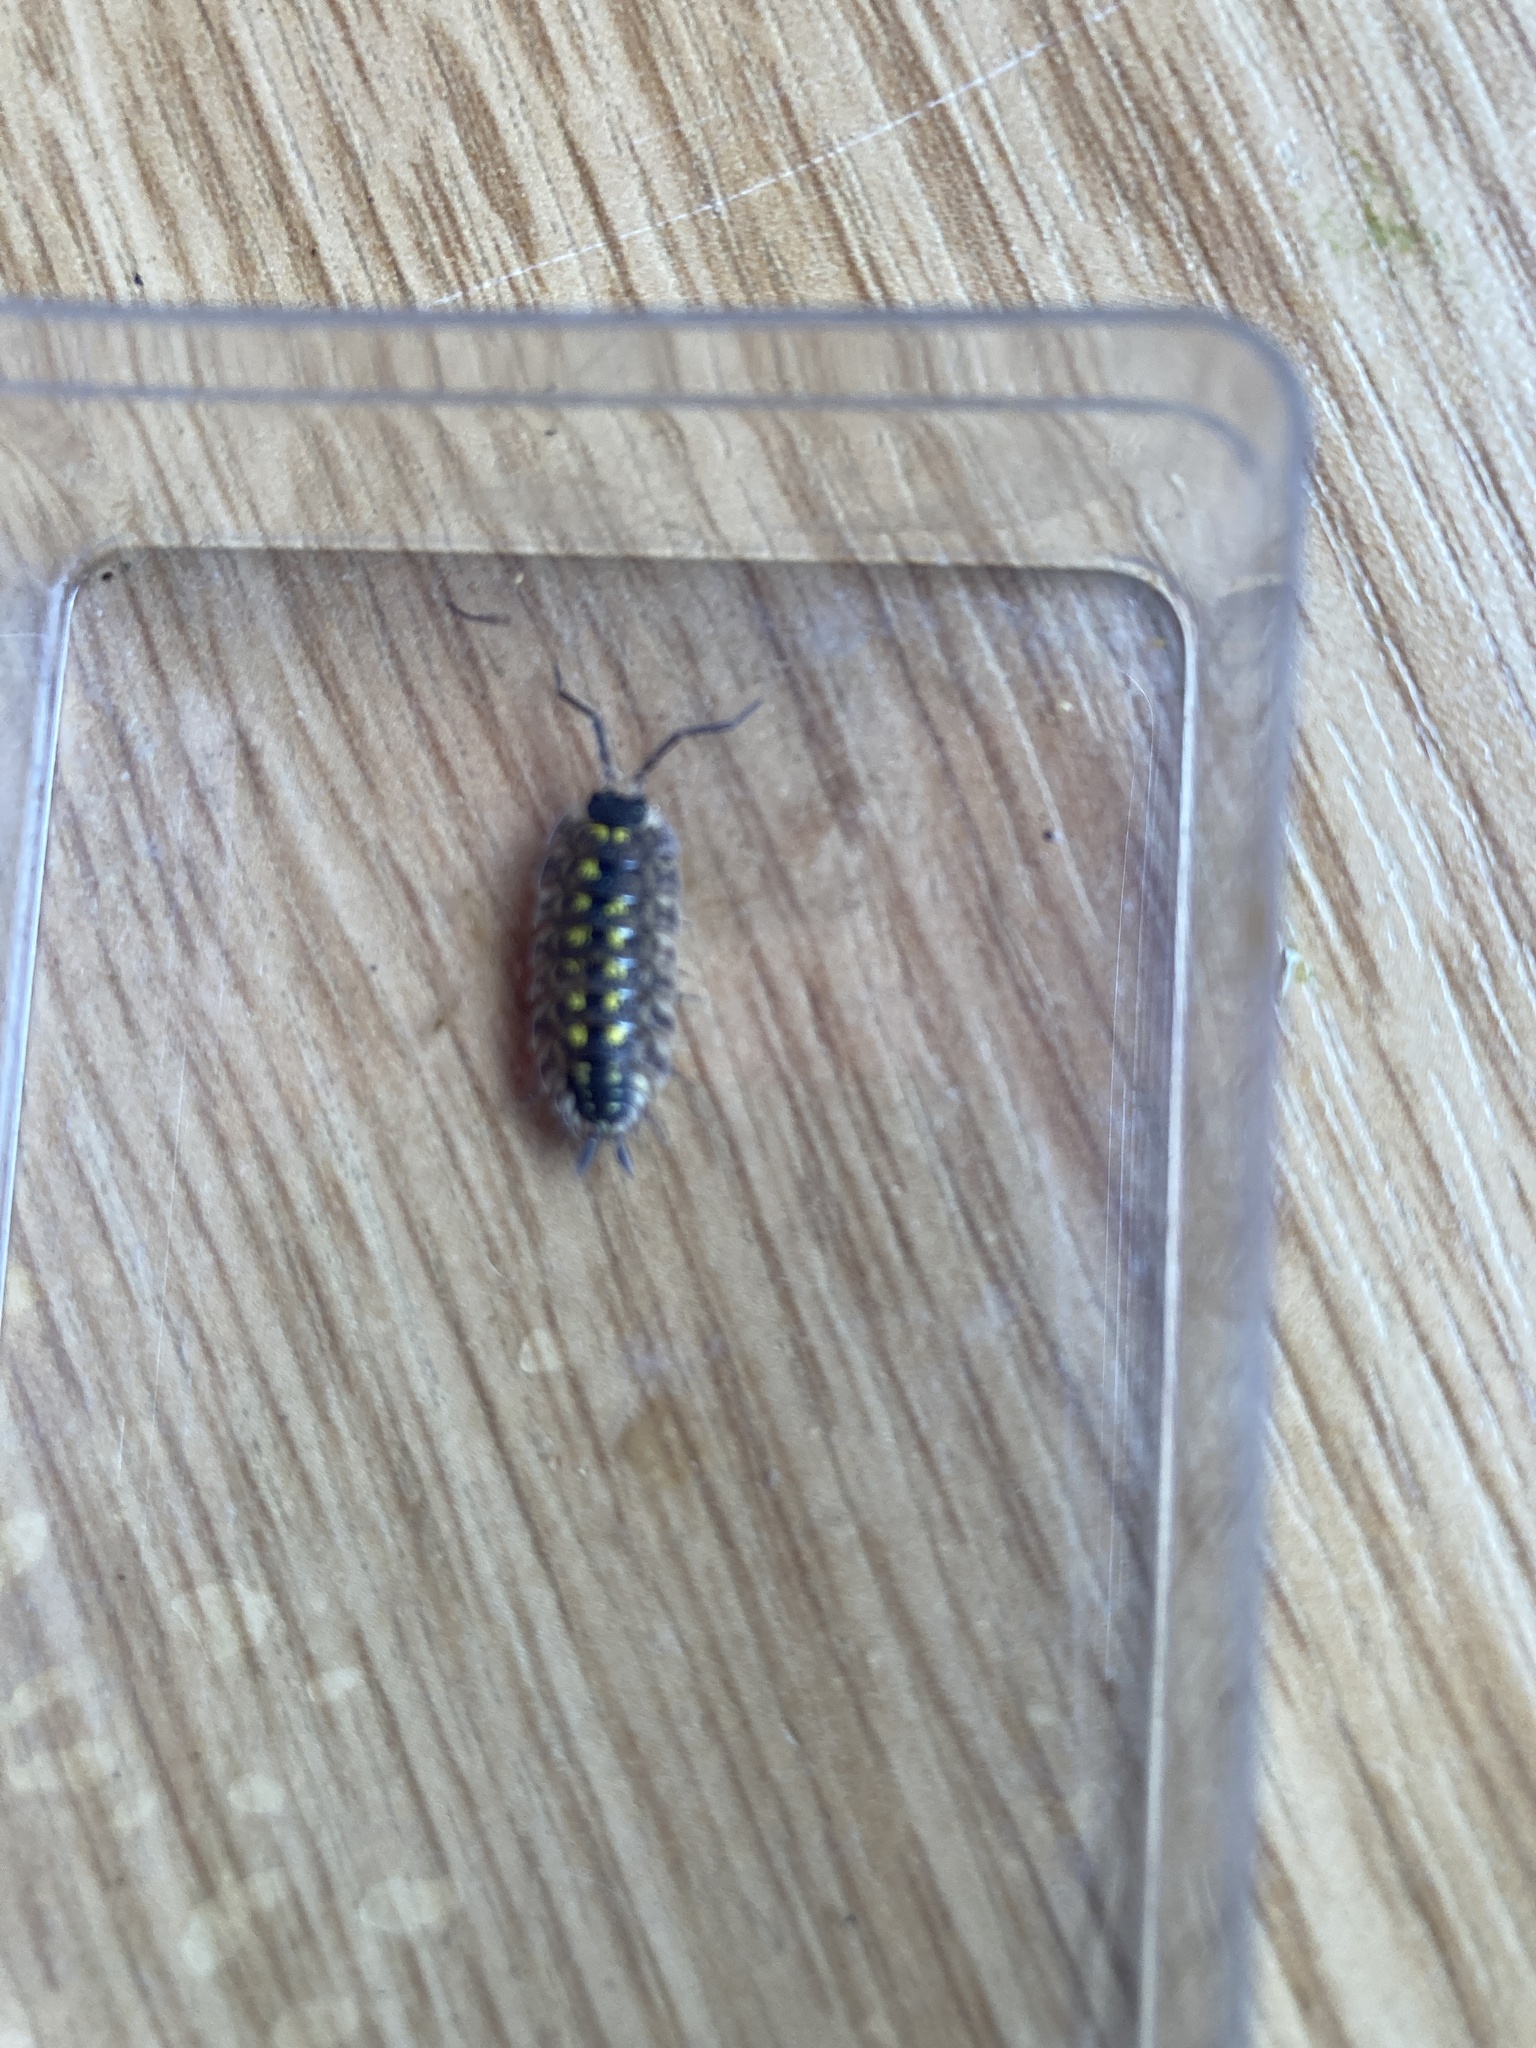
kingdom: Animalia
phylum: Arthropoda
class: Malacostraca
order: Isopoda
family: Porcellionidae
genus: Porcellio
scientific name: Porcellio spinicornis
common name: Painted woodlouse
